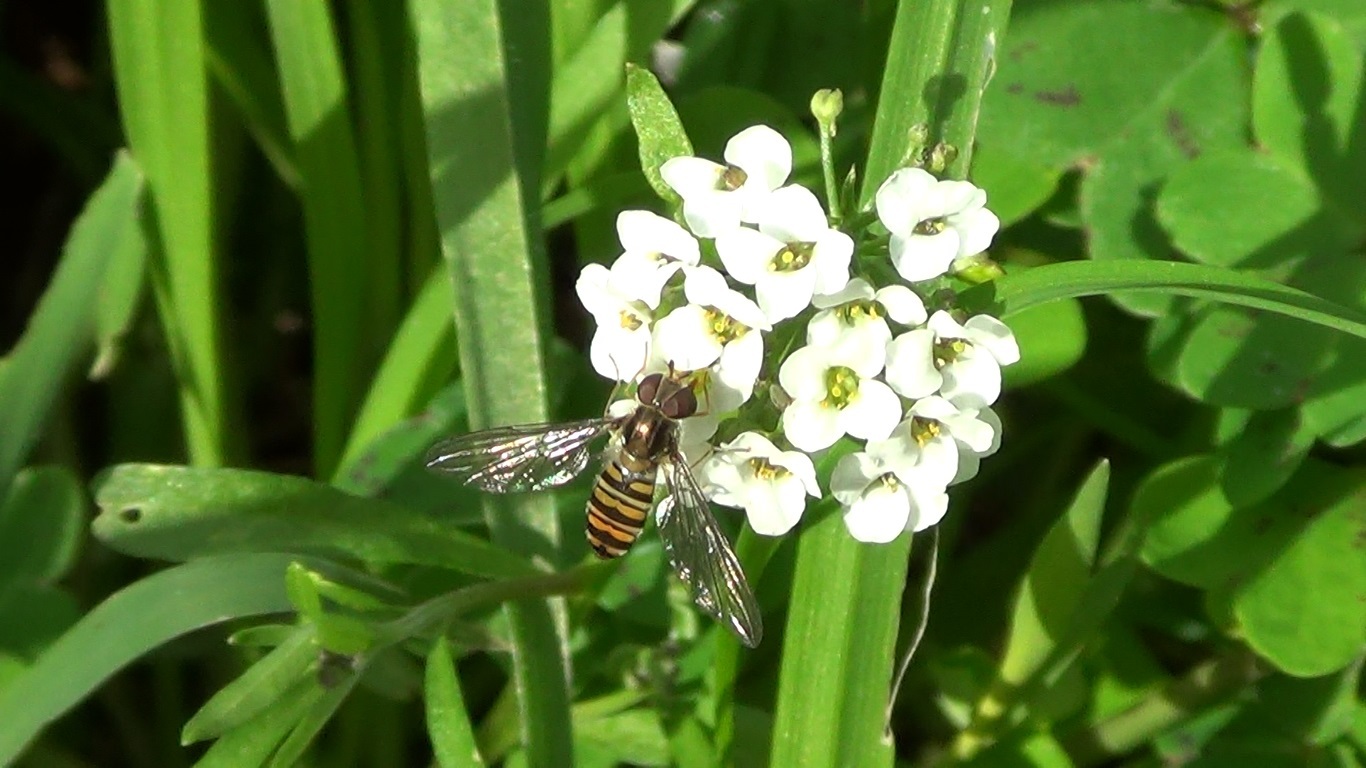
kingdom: Animalia
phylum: Arthropoda
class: Insecta
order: Diptera
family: Syrphidae
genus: Episyrphus
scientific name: Episyrphus balteatus
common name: Marmalade hoverfly
